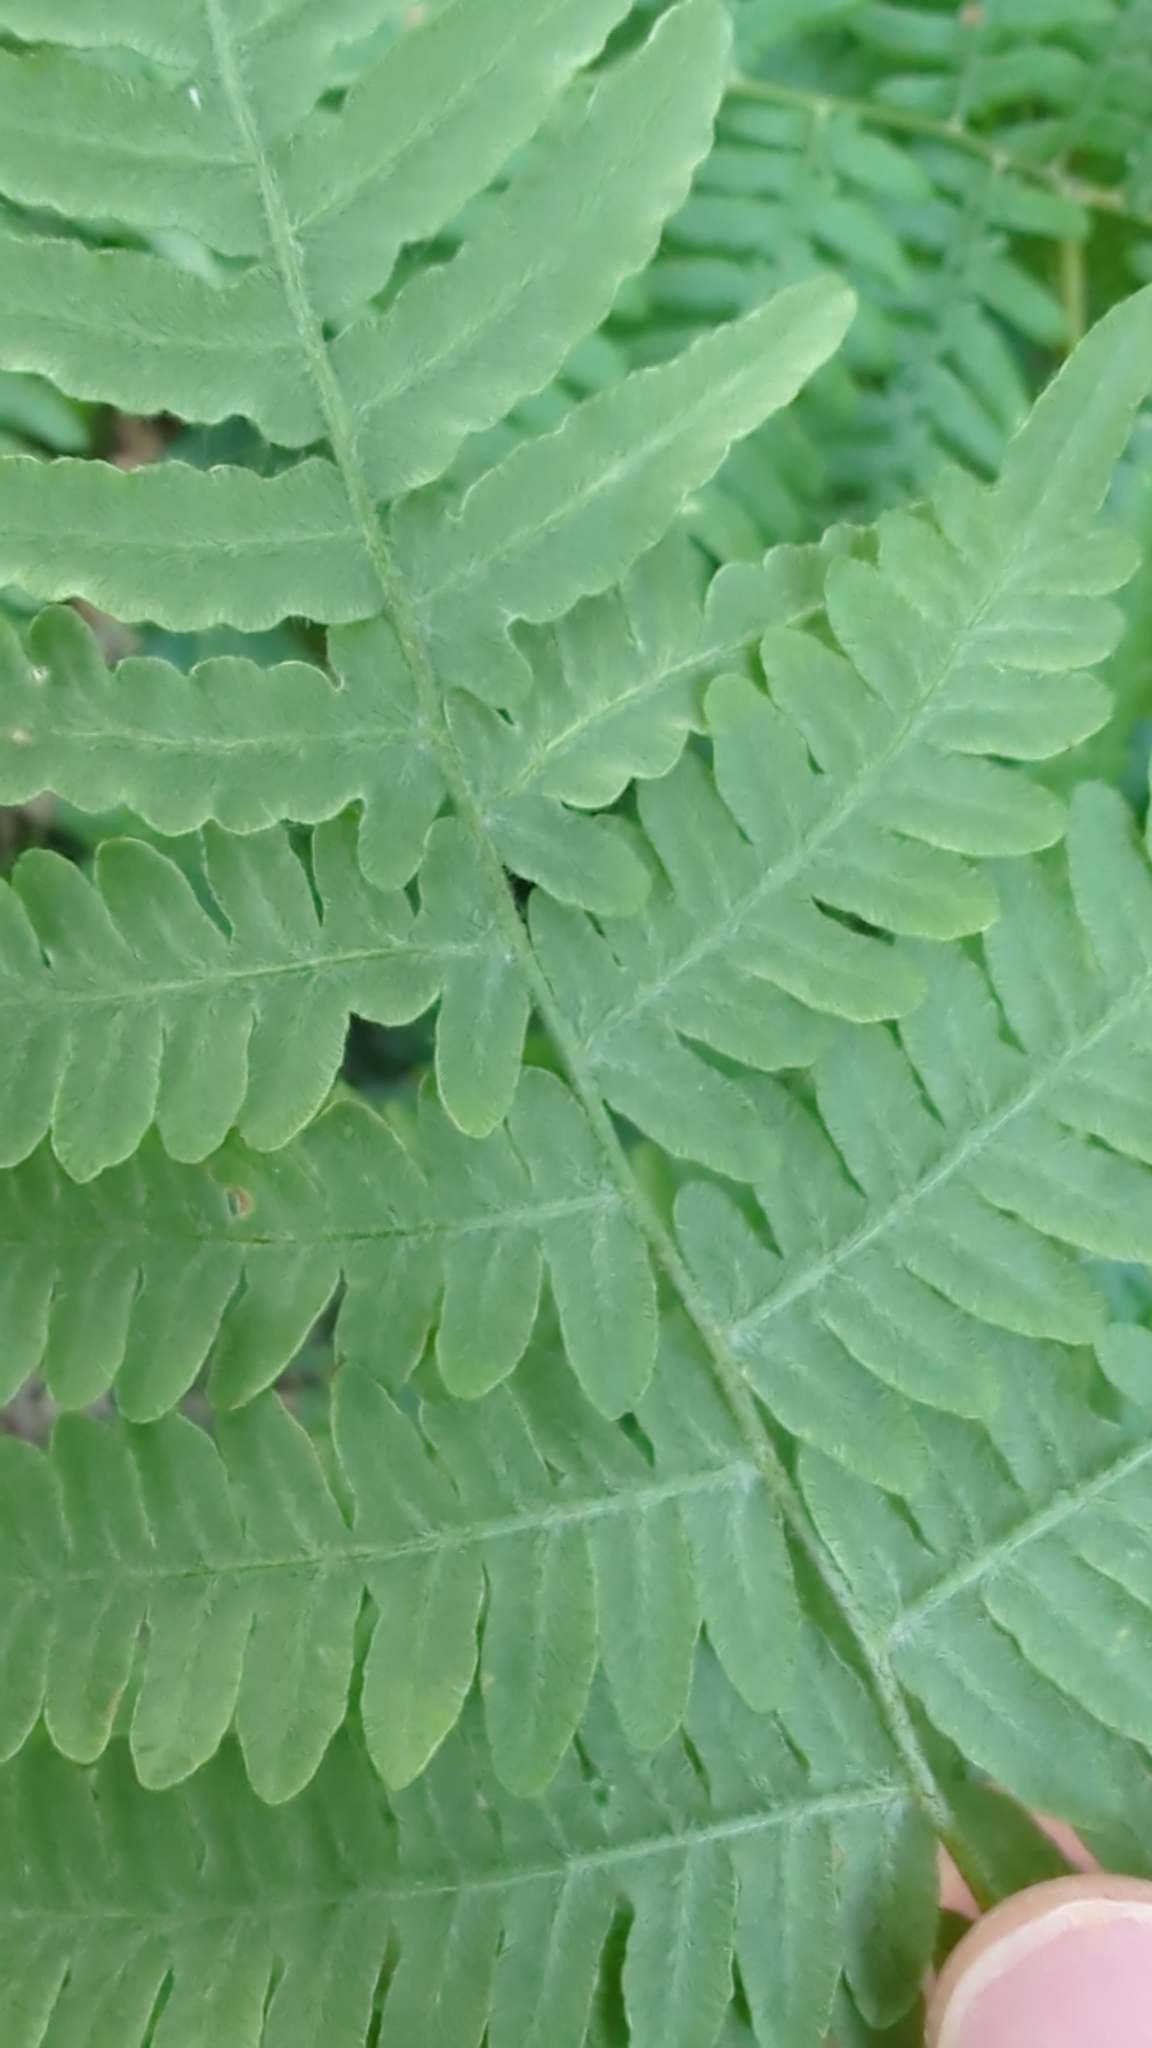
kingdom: Plantae
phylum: Tracheophyta
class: Polypodiopsida
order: Polypodiales
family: Dennstaedtiaceae
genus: Pteridium
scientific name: Pteridium aquilinum
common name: Bracken
